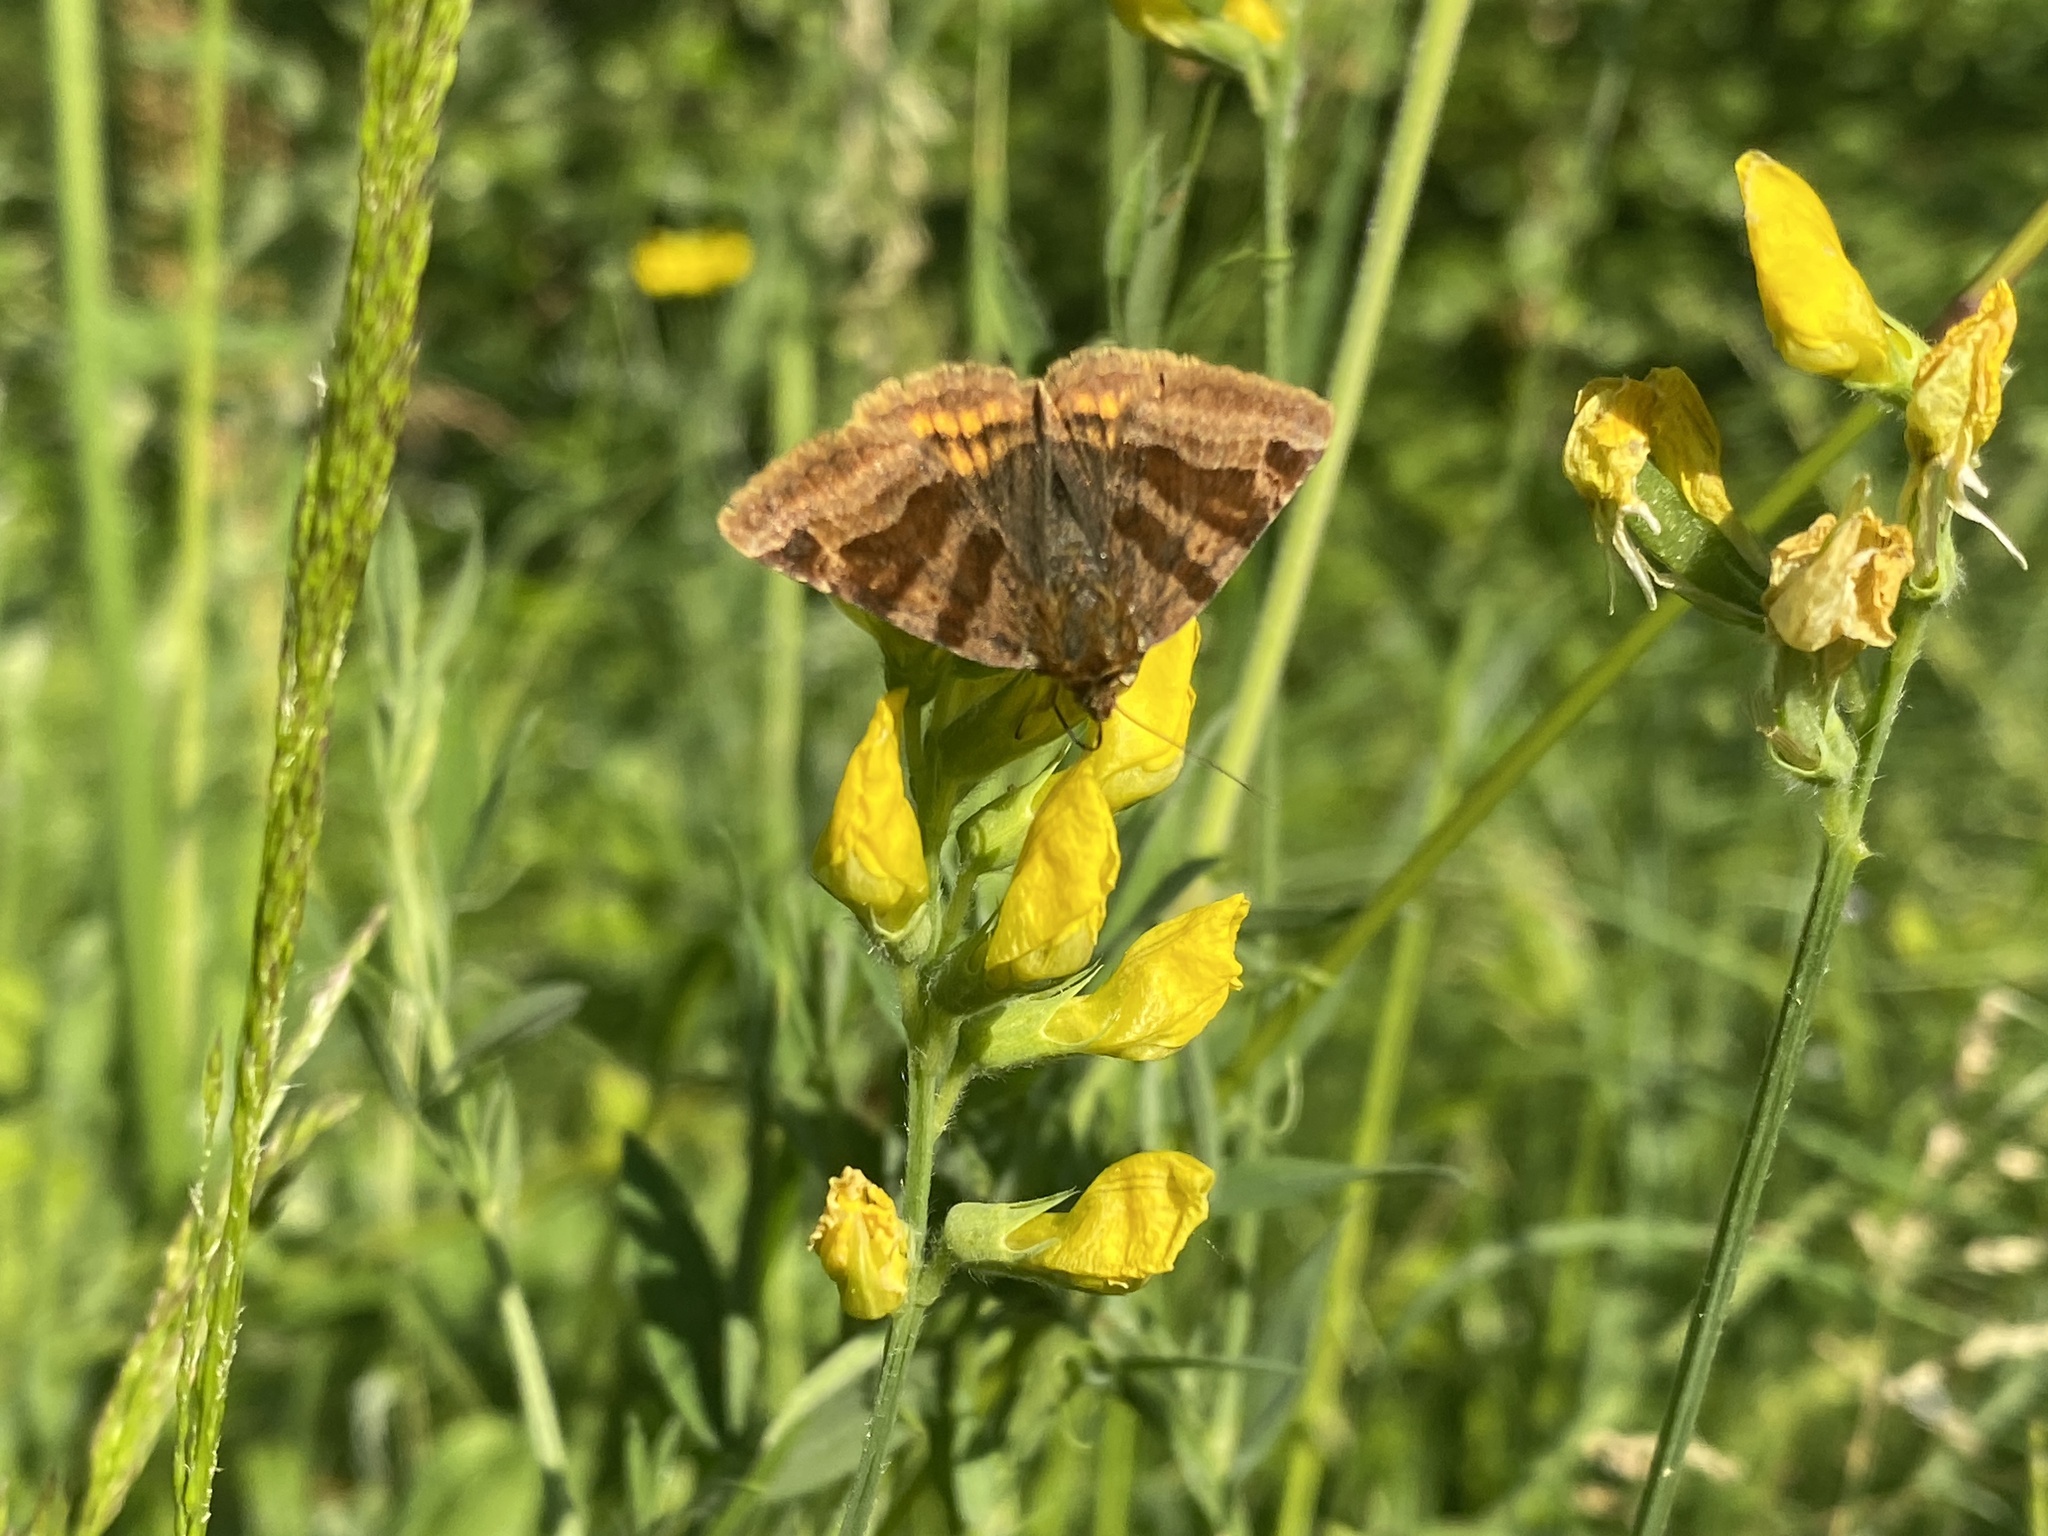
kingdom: Animalia
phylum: Arthropoda
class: Insecta
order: Lepidoptera
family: Erebidae
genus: Euclidia
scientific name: Euclidia glyphica
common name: Burnet companion
